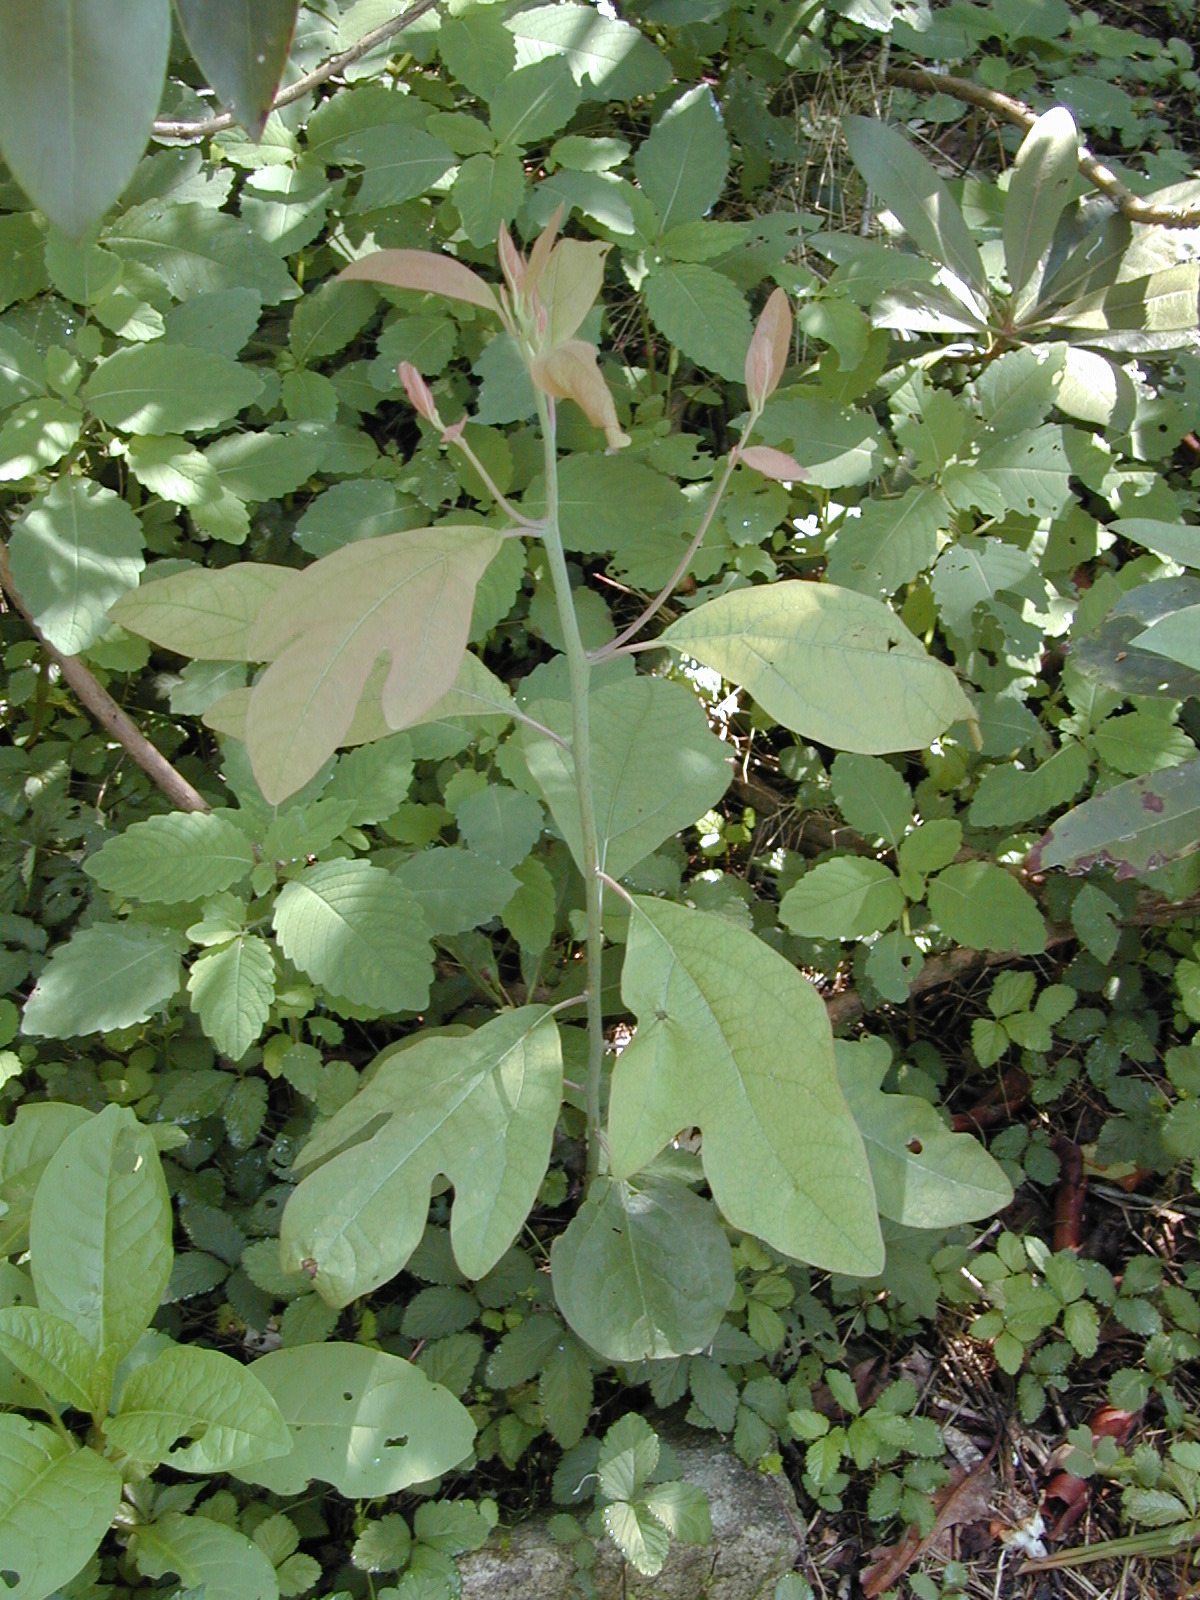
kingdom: Plantae
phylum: Tracheophyta
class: Magnoliopsida
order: Laurales
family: Lauraceae
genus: Sassafras
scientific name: Sassafras albidum
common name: Sassafras
